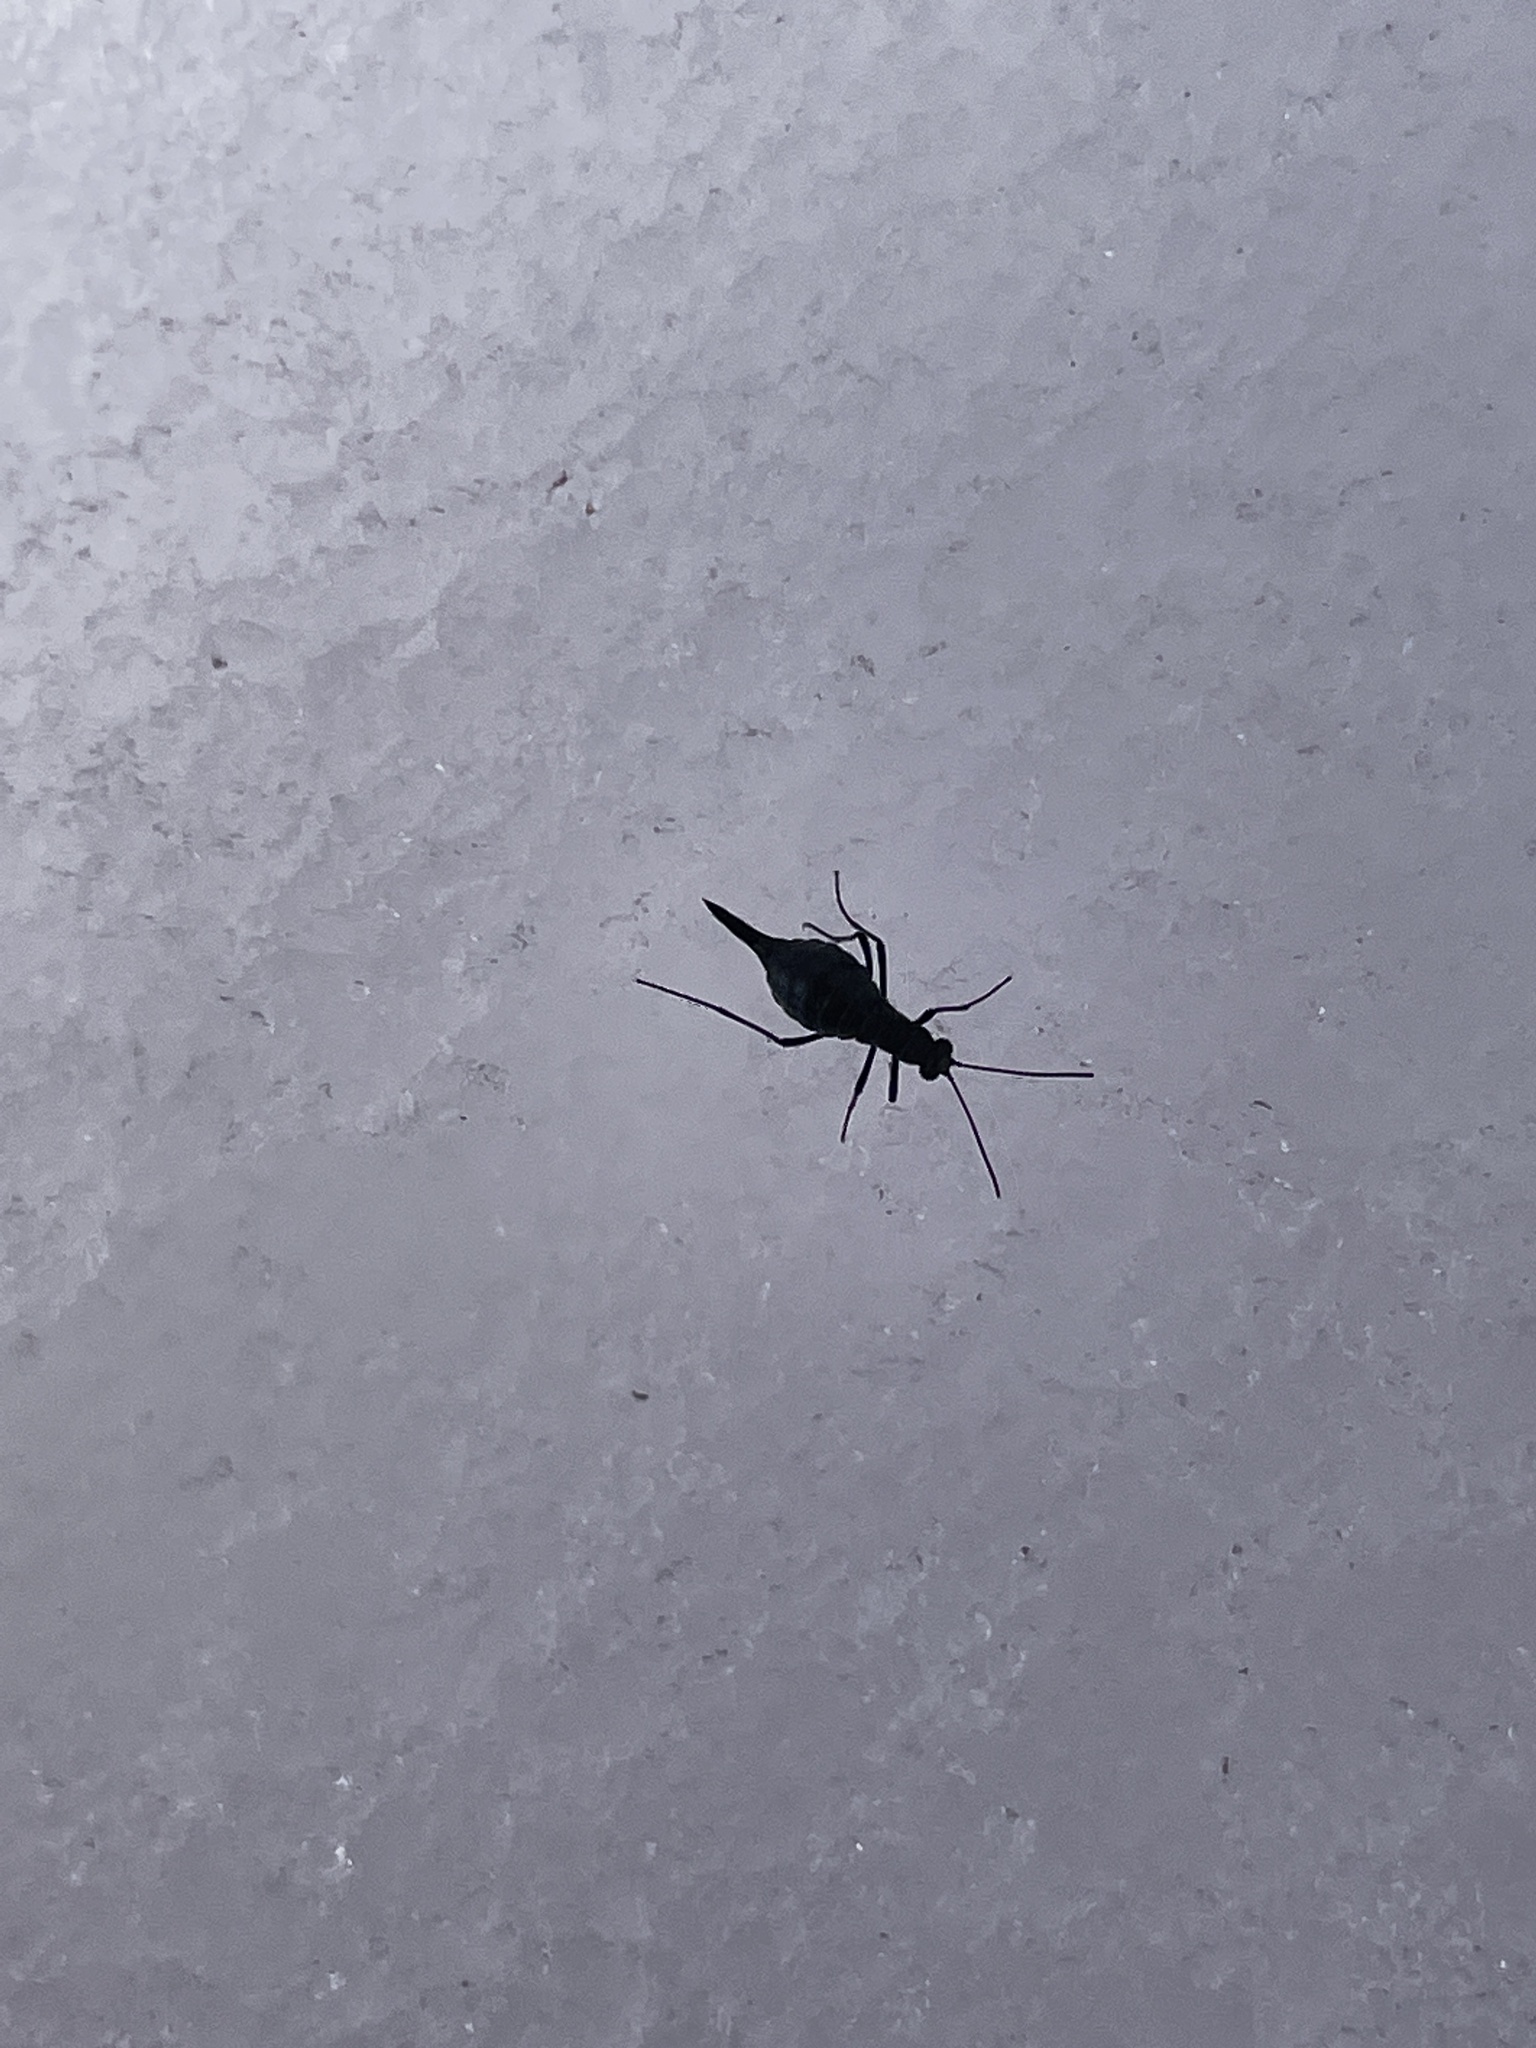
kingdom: Animalia
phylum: Arthropoda
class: Insecta
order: Mecoptera
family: Boreidae
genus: Boreus
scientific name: Boreus coloradensis
